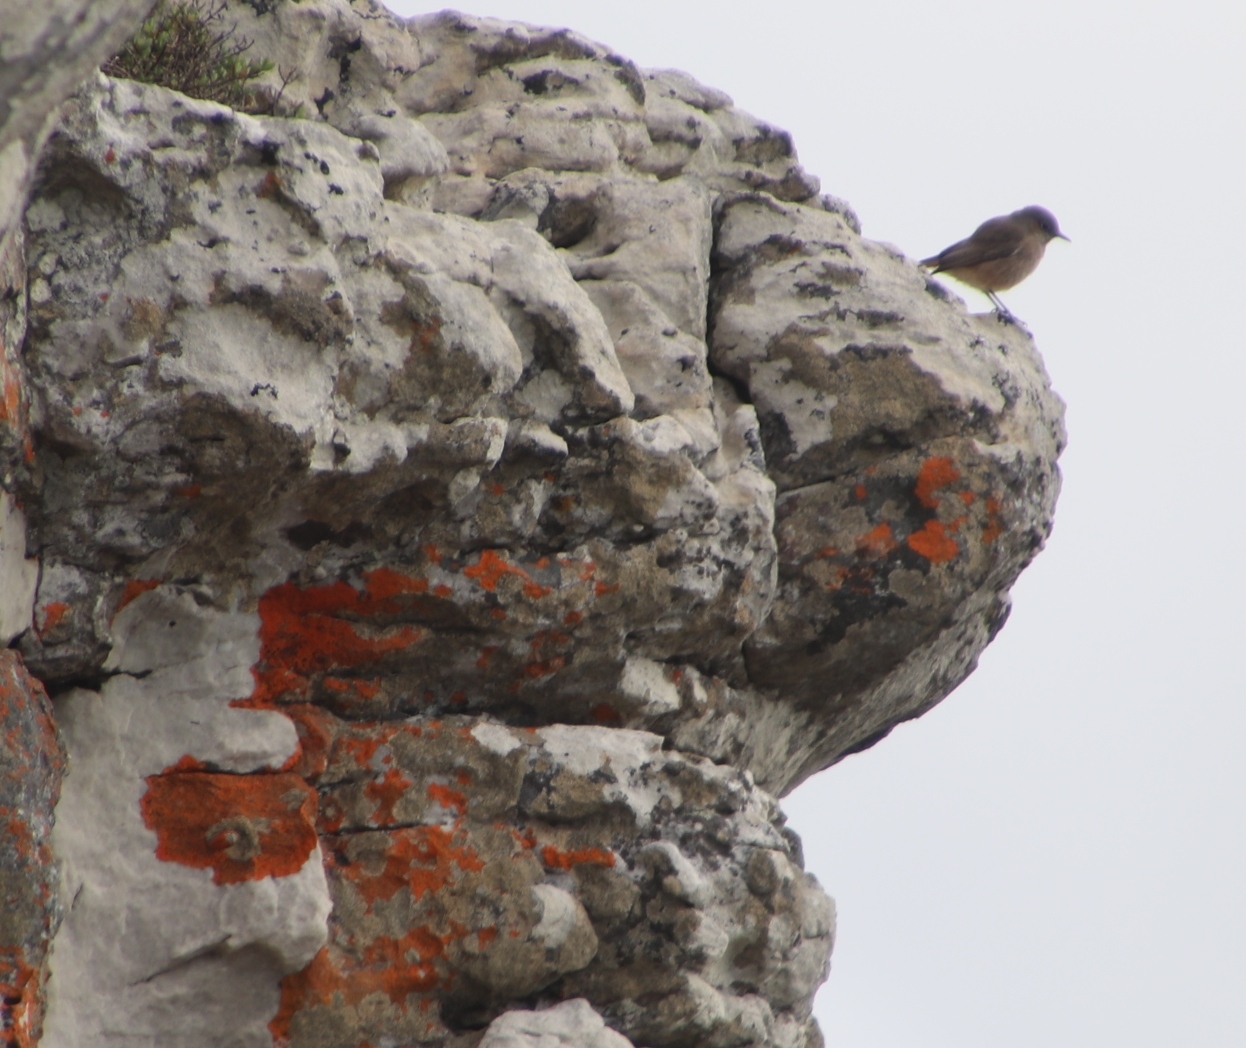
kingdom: Animalia
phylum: Chordata
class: Aves
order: Passeriformes
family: Muscicapidae
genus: Oenanthe
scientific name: Oenanthe familiaris
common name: Familiar chat
